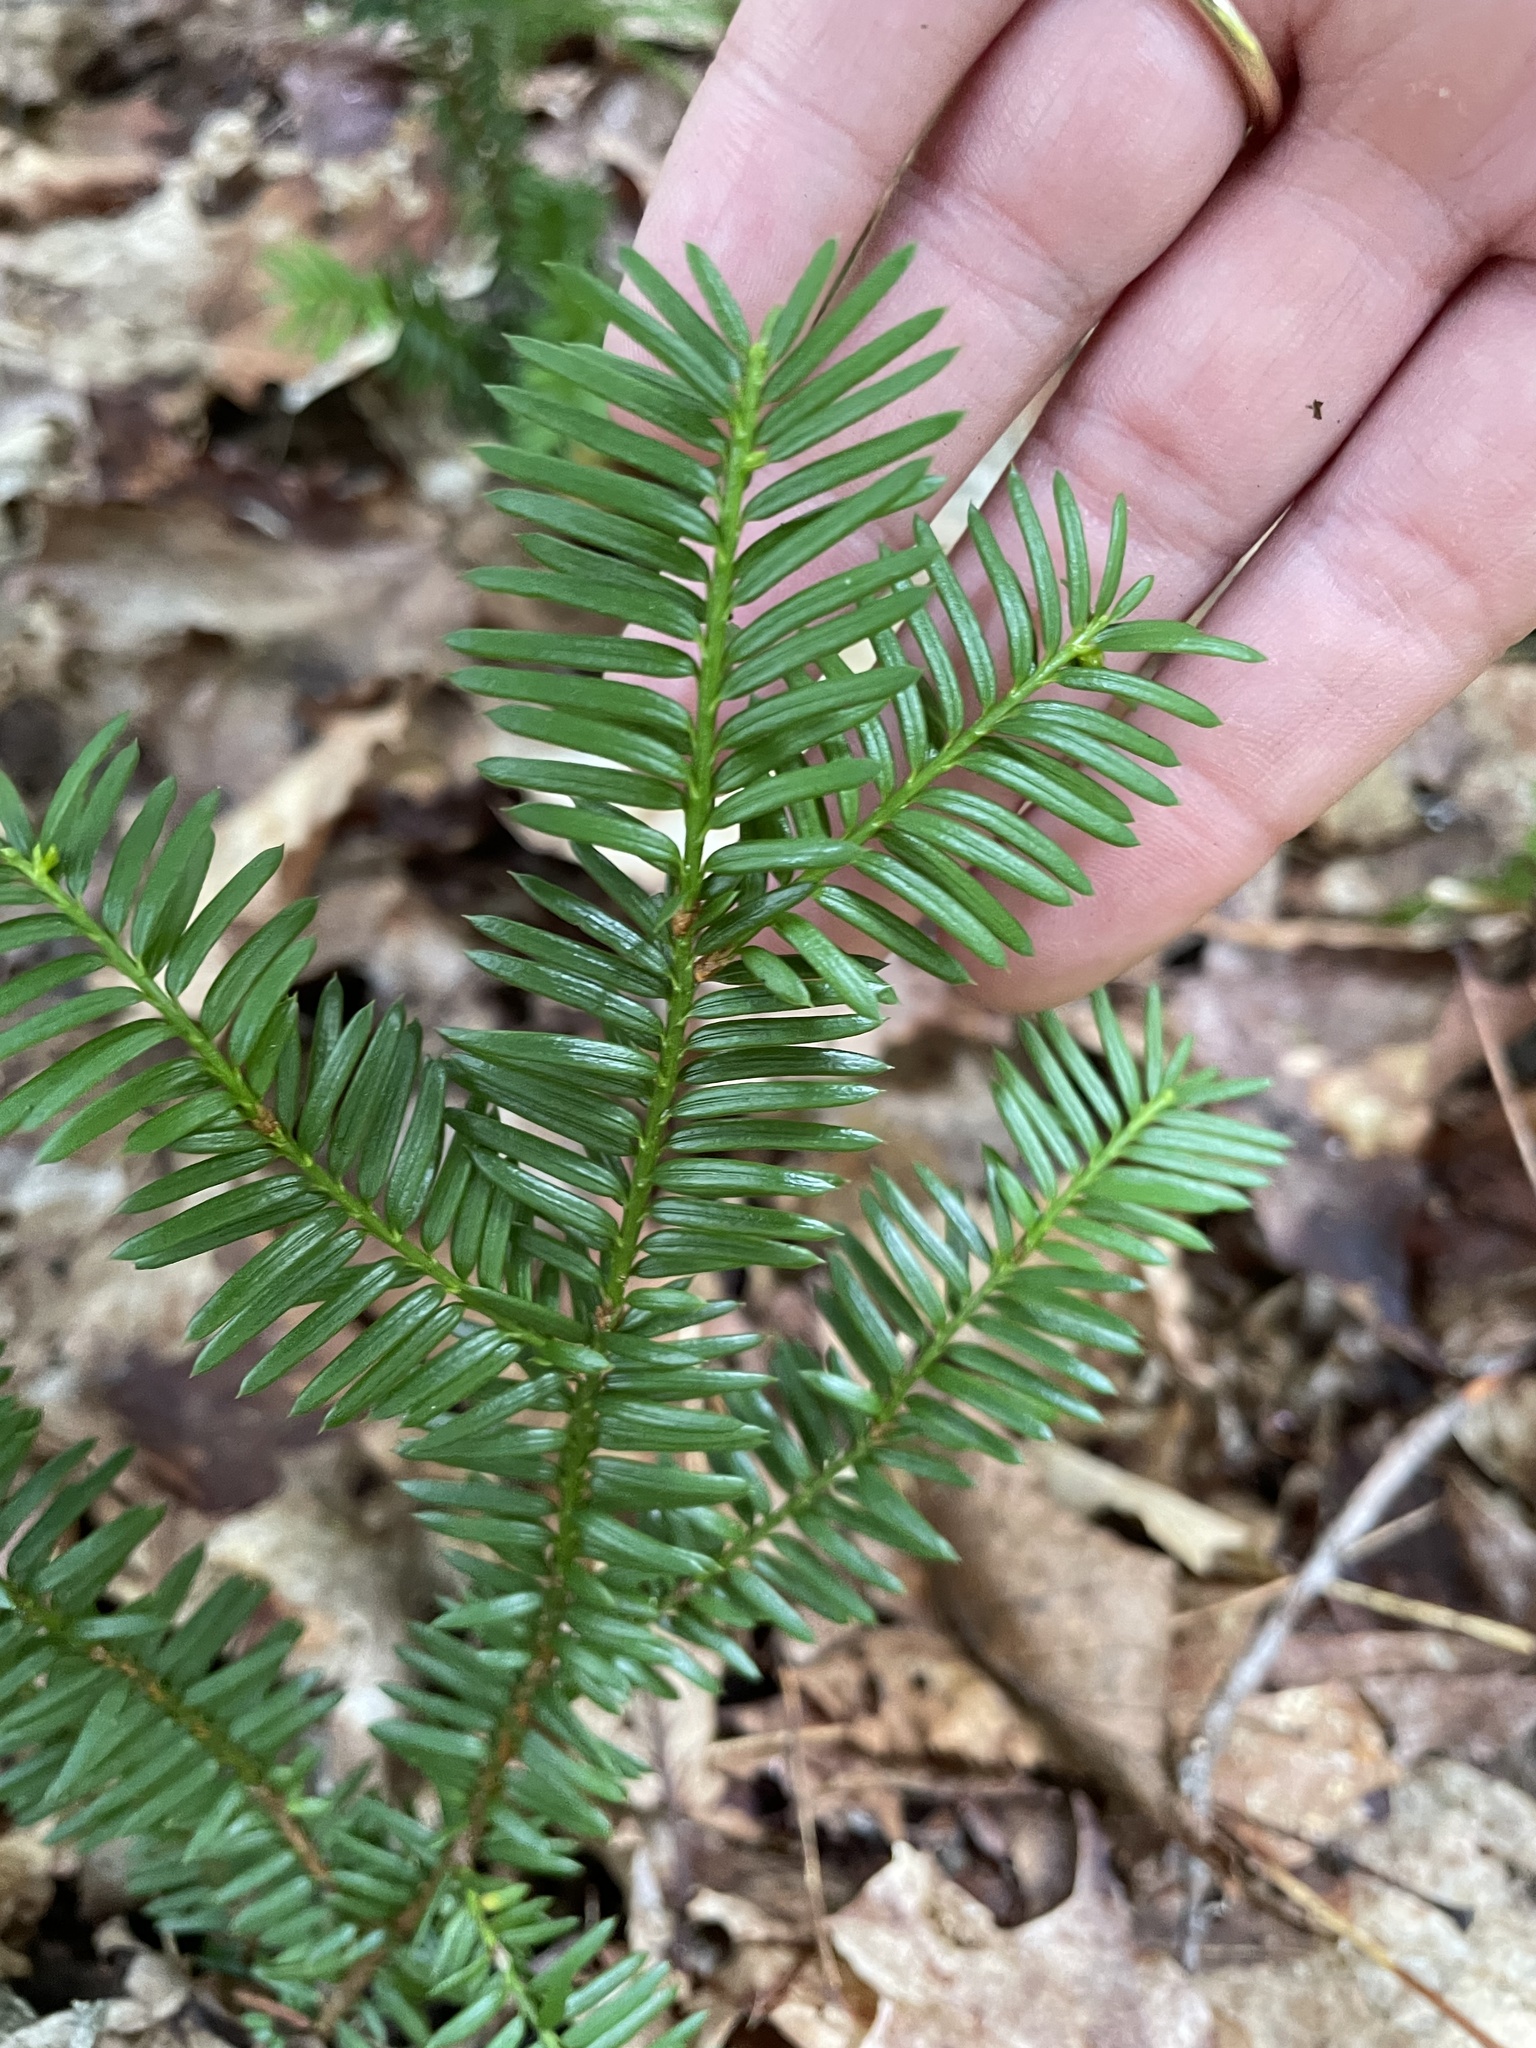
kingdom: Plantae
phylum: Tracheophyta
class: Pinopsida
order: Pinales
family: Taxaceae
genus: Taxus
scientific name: Taxus canadensis
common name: American yew
